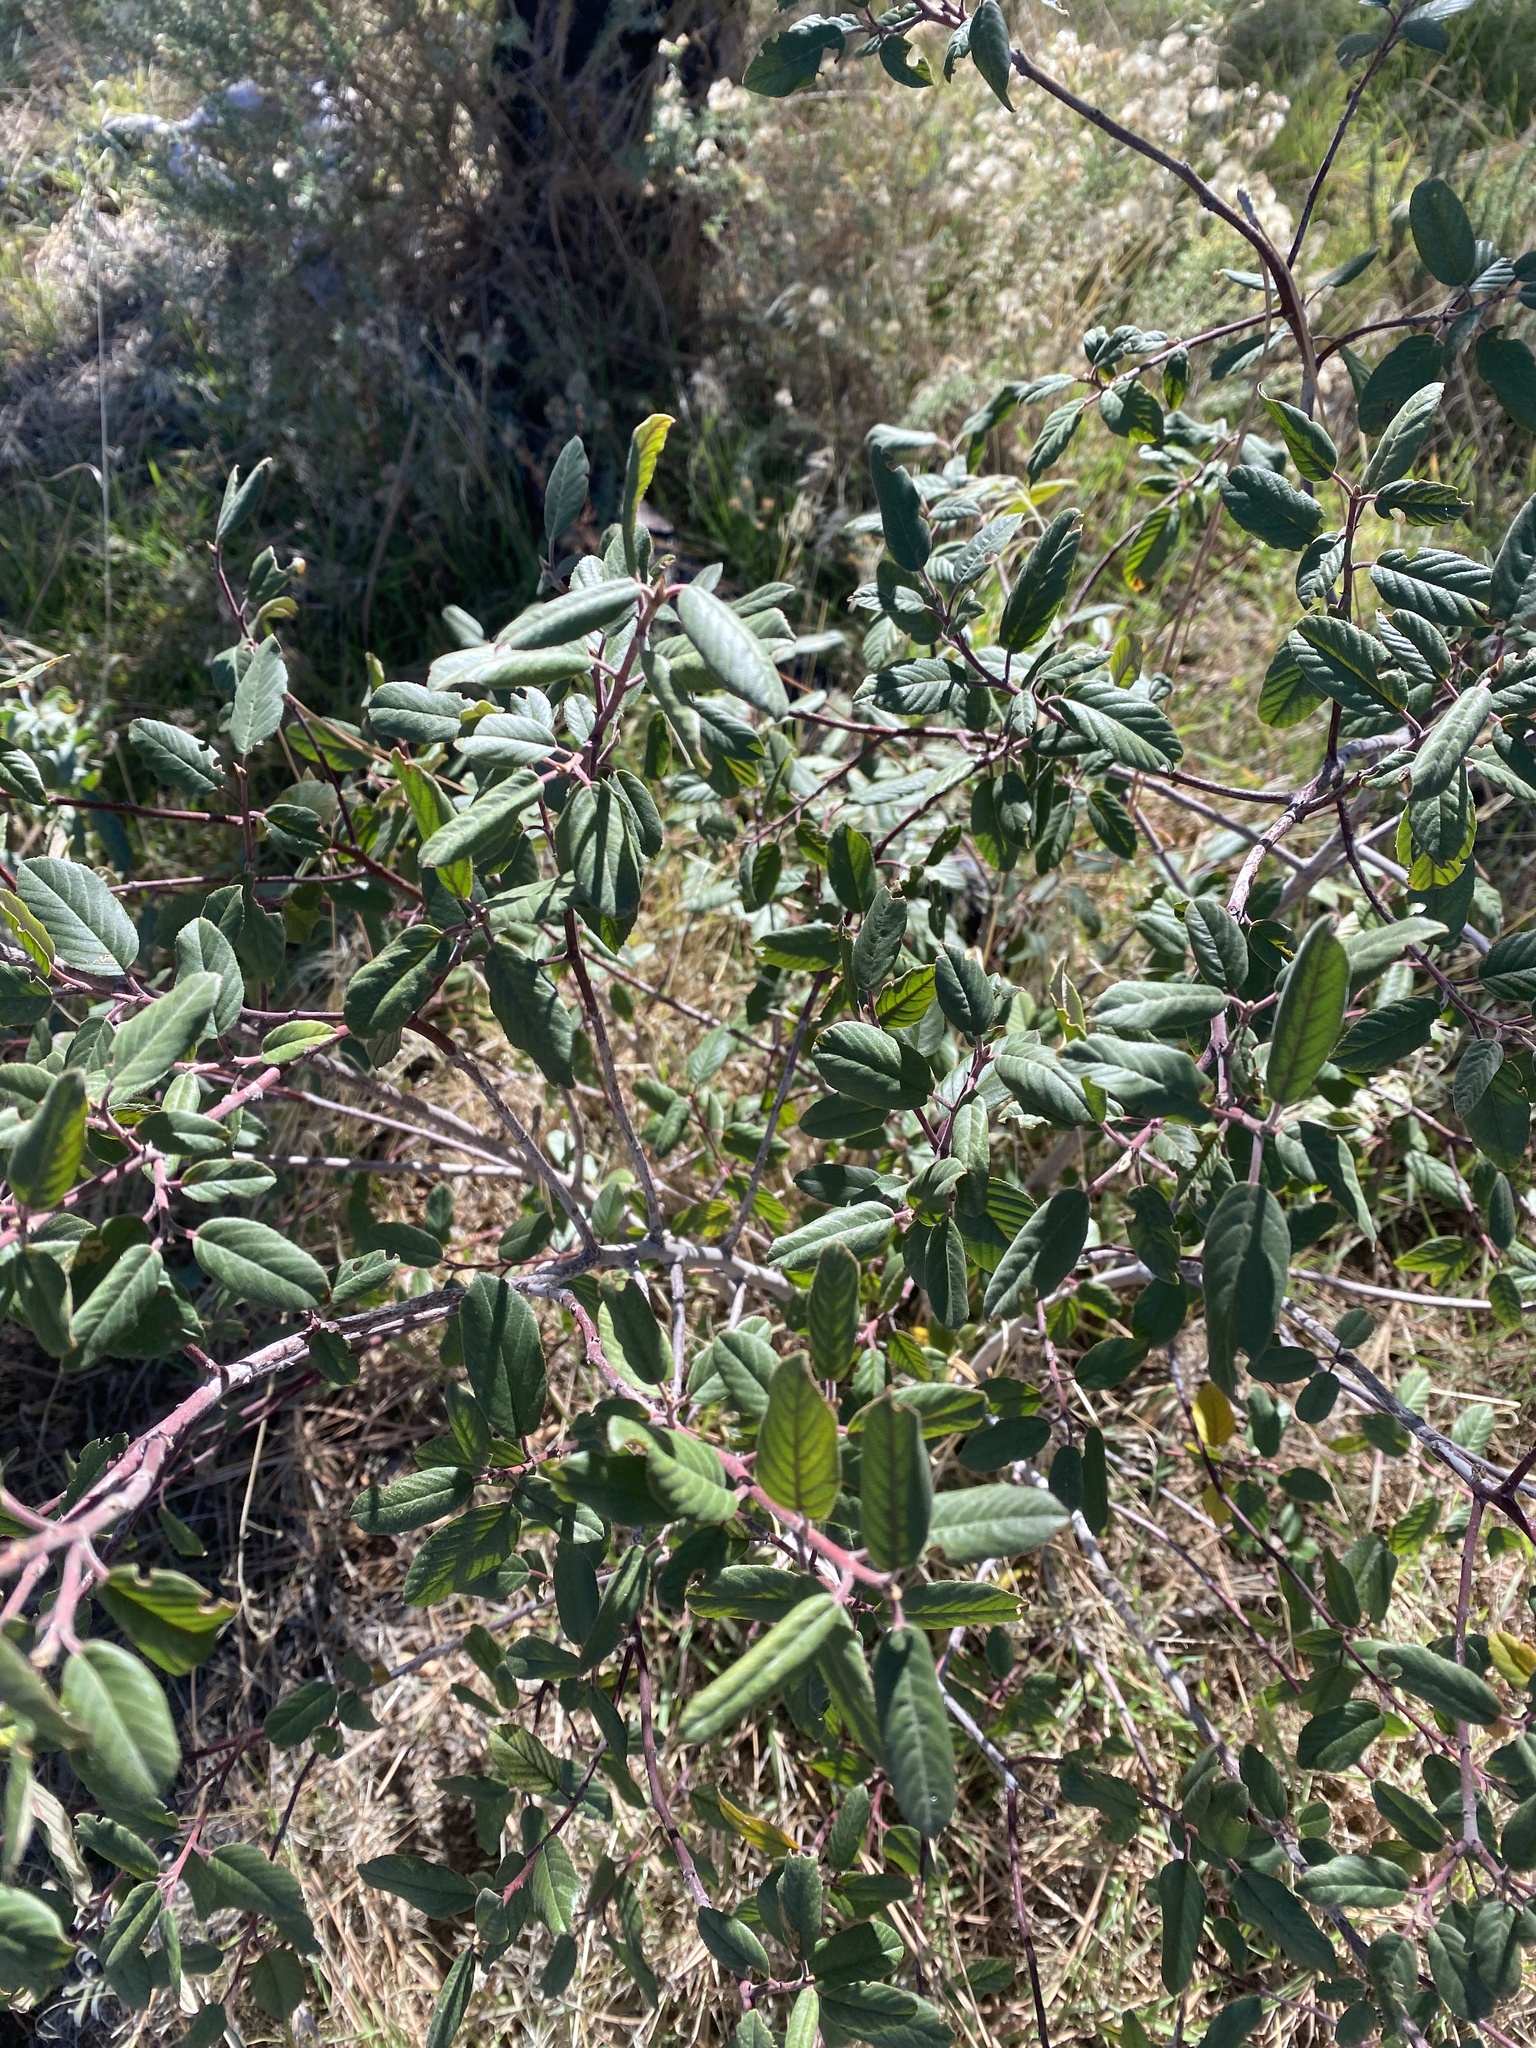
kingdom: Plantae
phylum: Tracheophyta
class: Magnoliopsida
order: Rosales
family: Rhamnaceae
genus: Frangula
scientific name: Frangula californica
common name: California buckthorn
